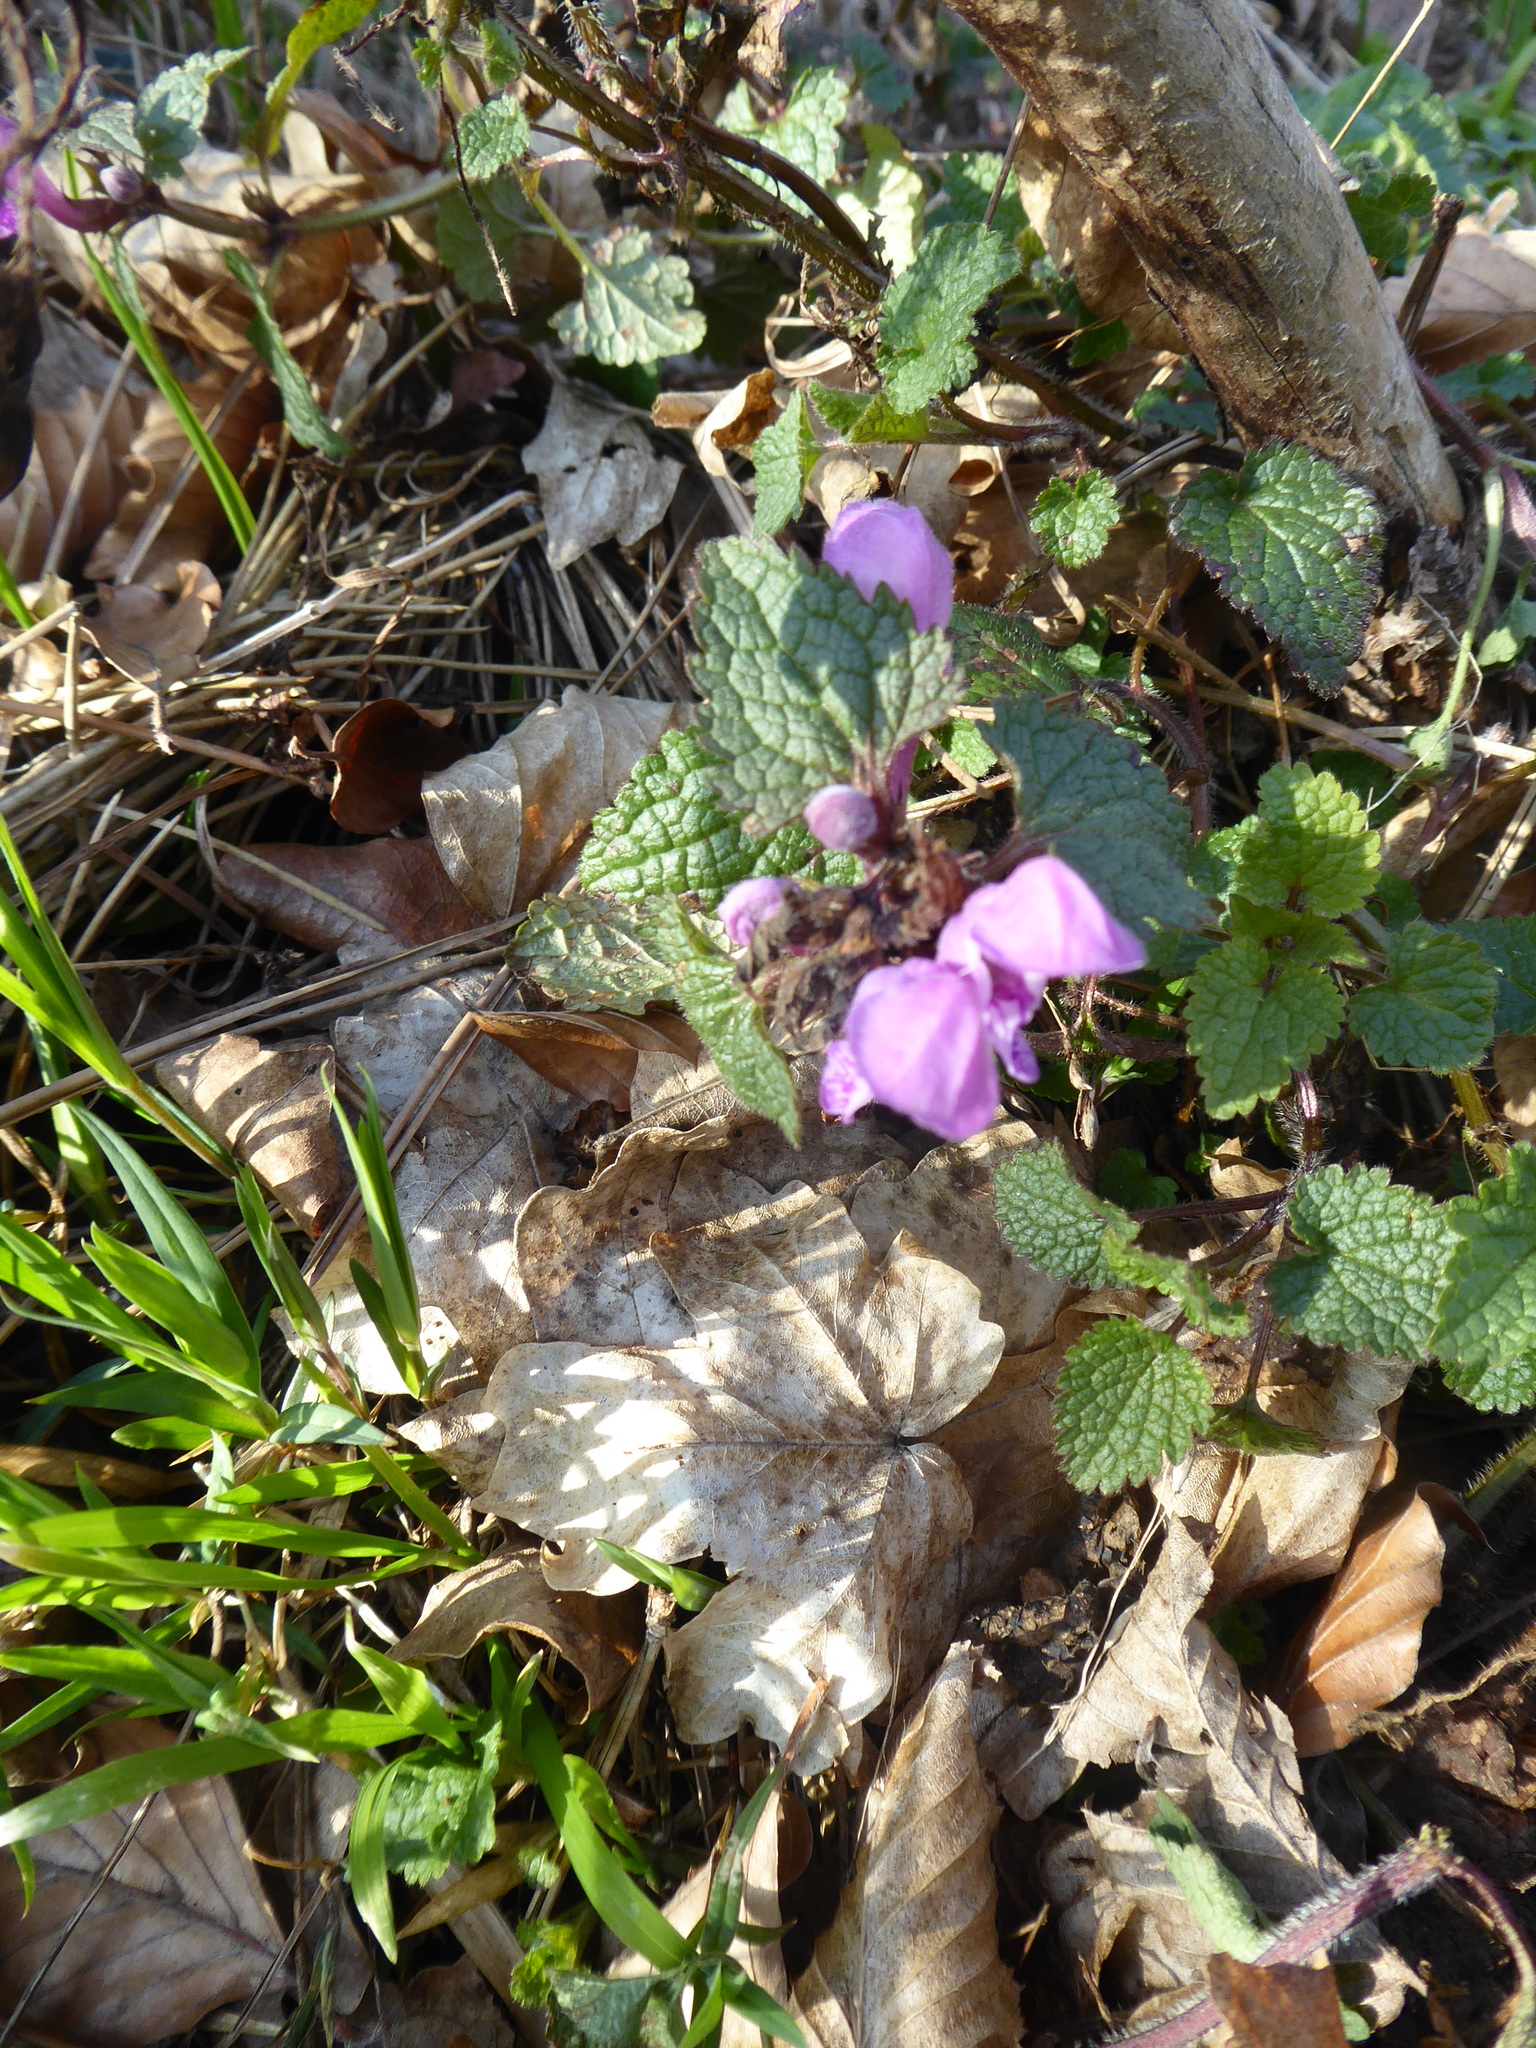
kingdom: Plantae
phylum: Tracheophyta
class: Magnoliopsida
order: Lamiales
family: Lamiaceae
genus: Lamium
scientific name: Lamium purpureum
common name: Red dead-nettle
